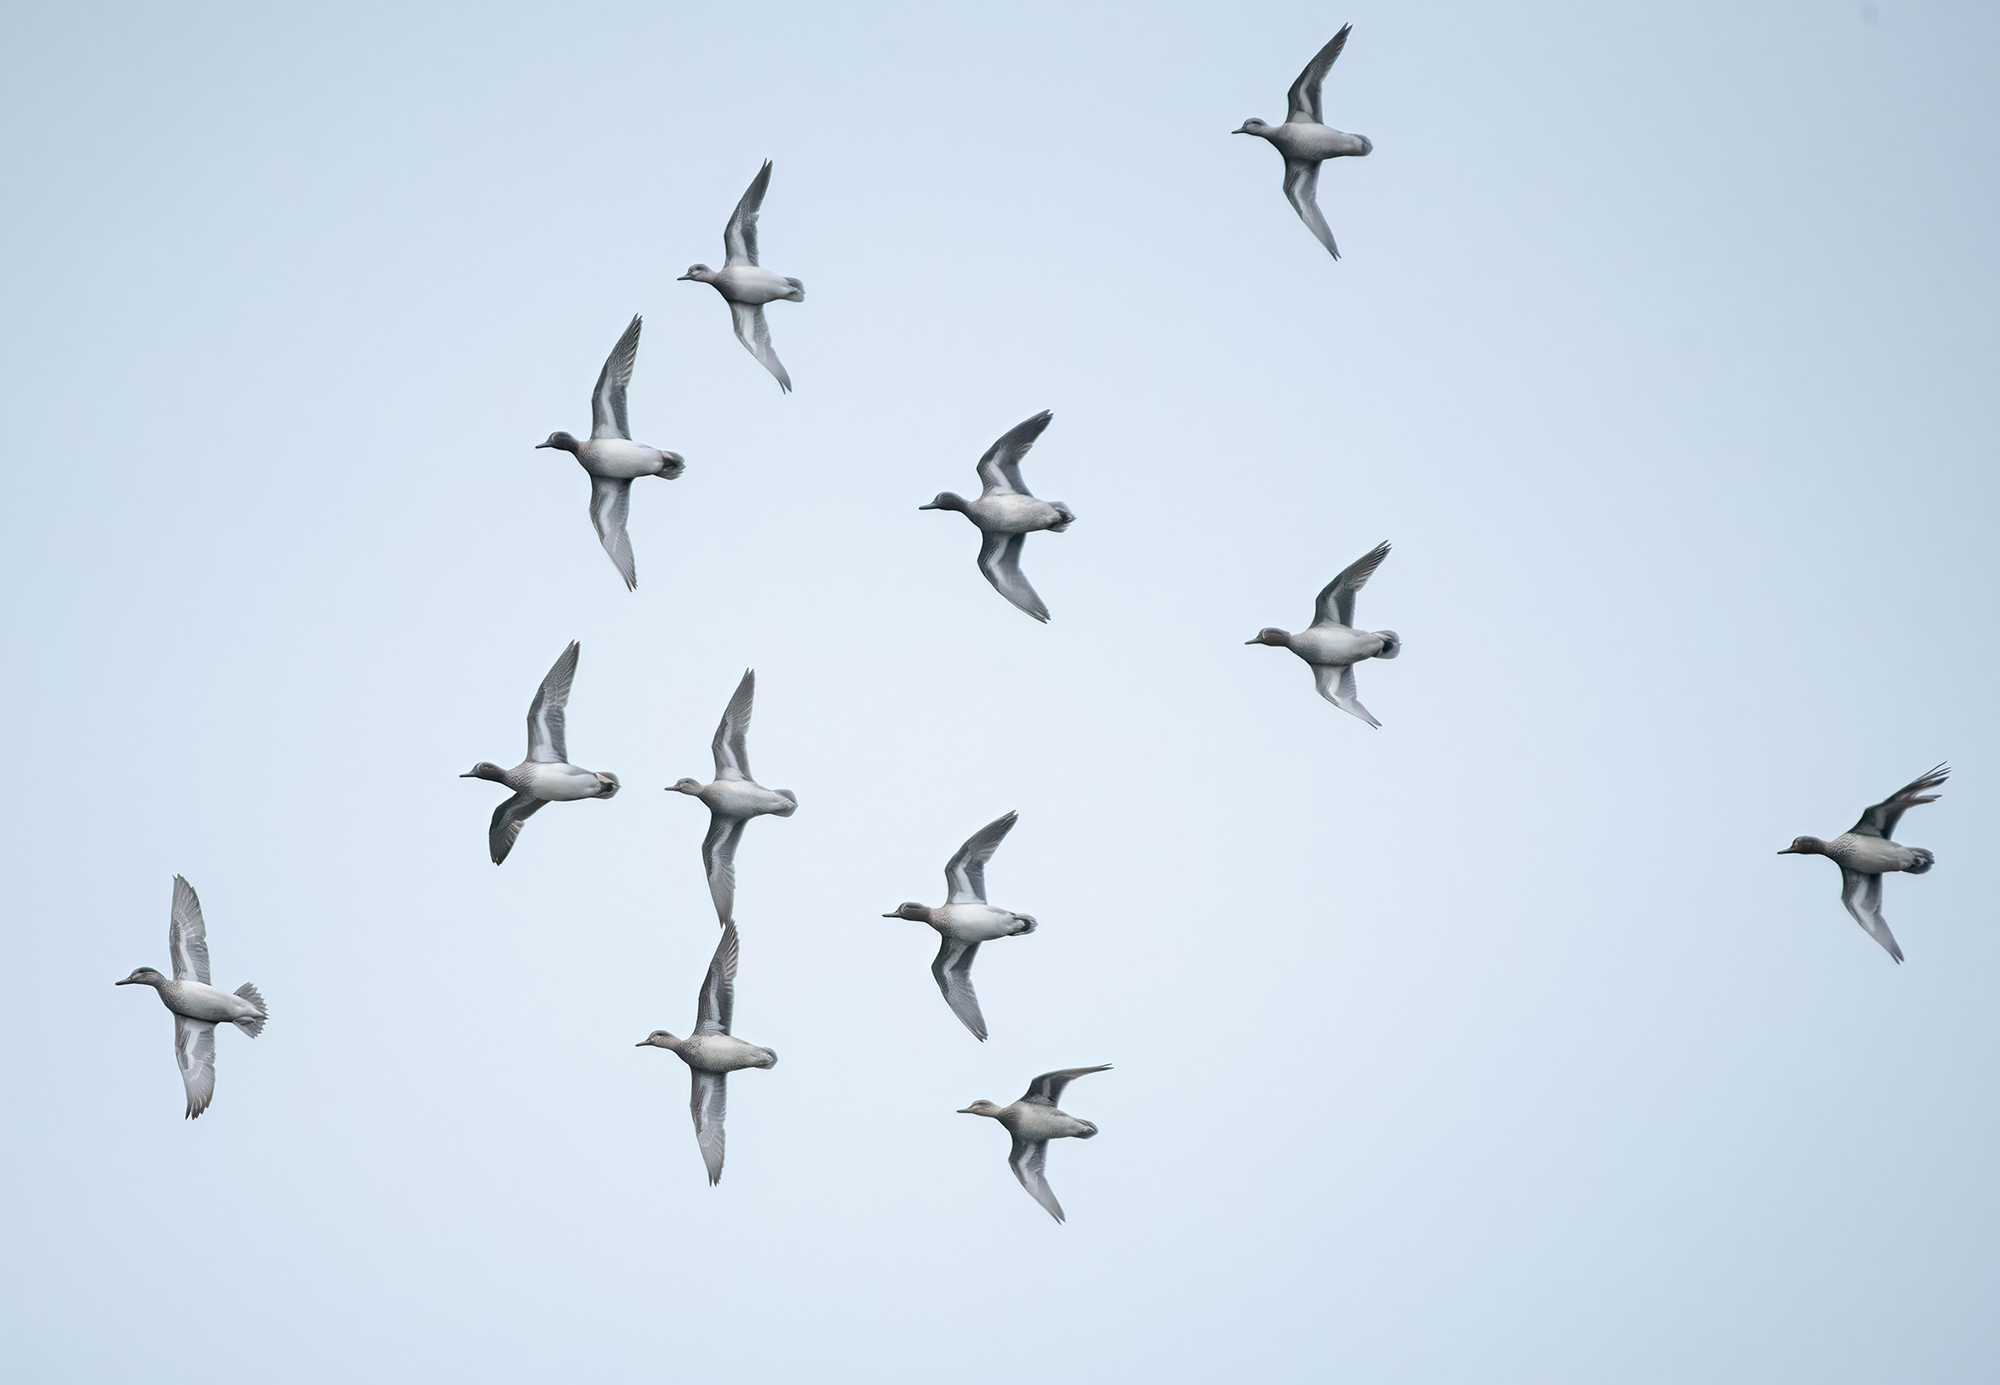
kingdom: Animalia
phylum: Chordata
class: Aves
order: Anseriformes
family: Anatidae
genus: Anas
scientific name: Anas crecca
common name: Eurasian teal
